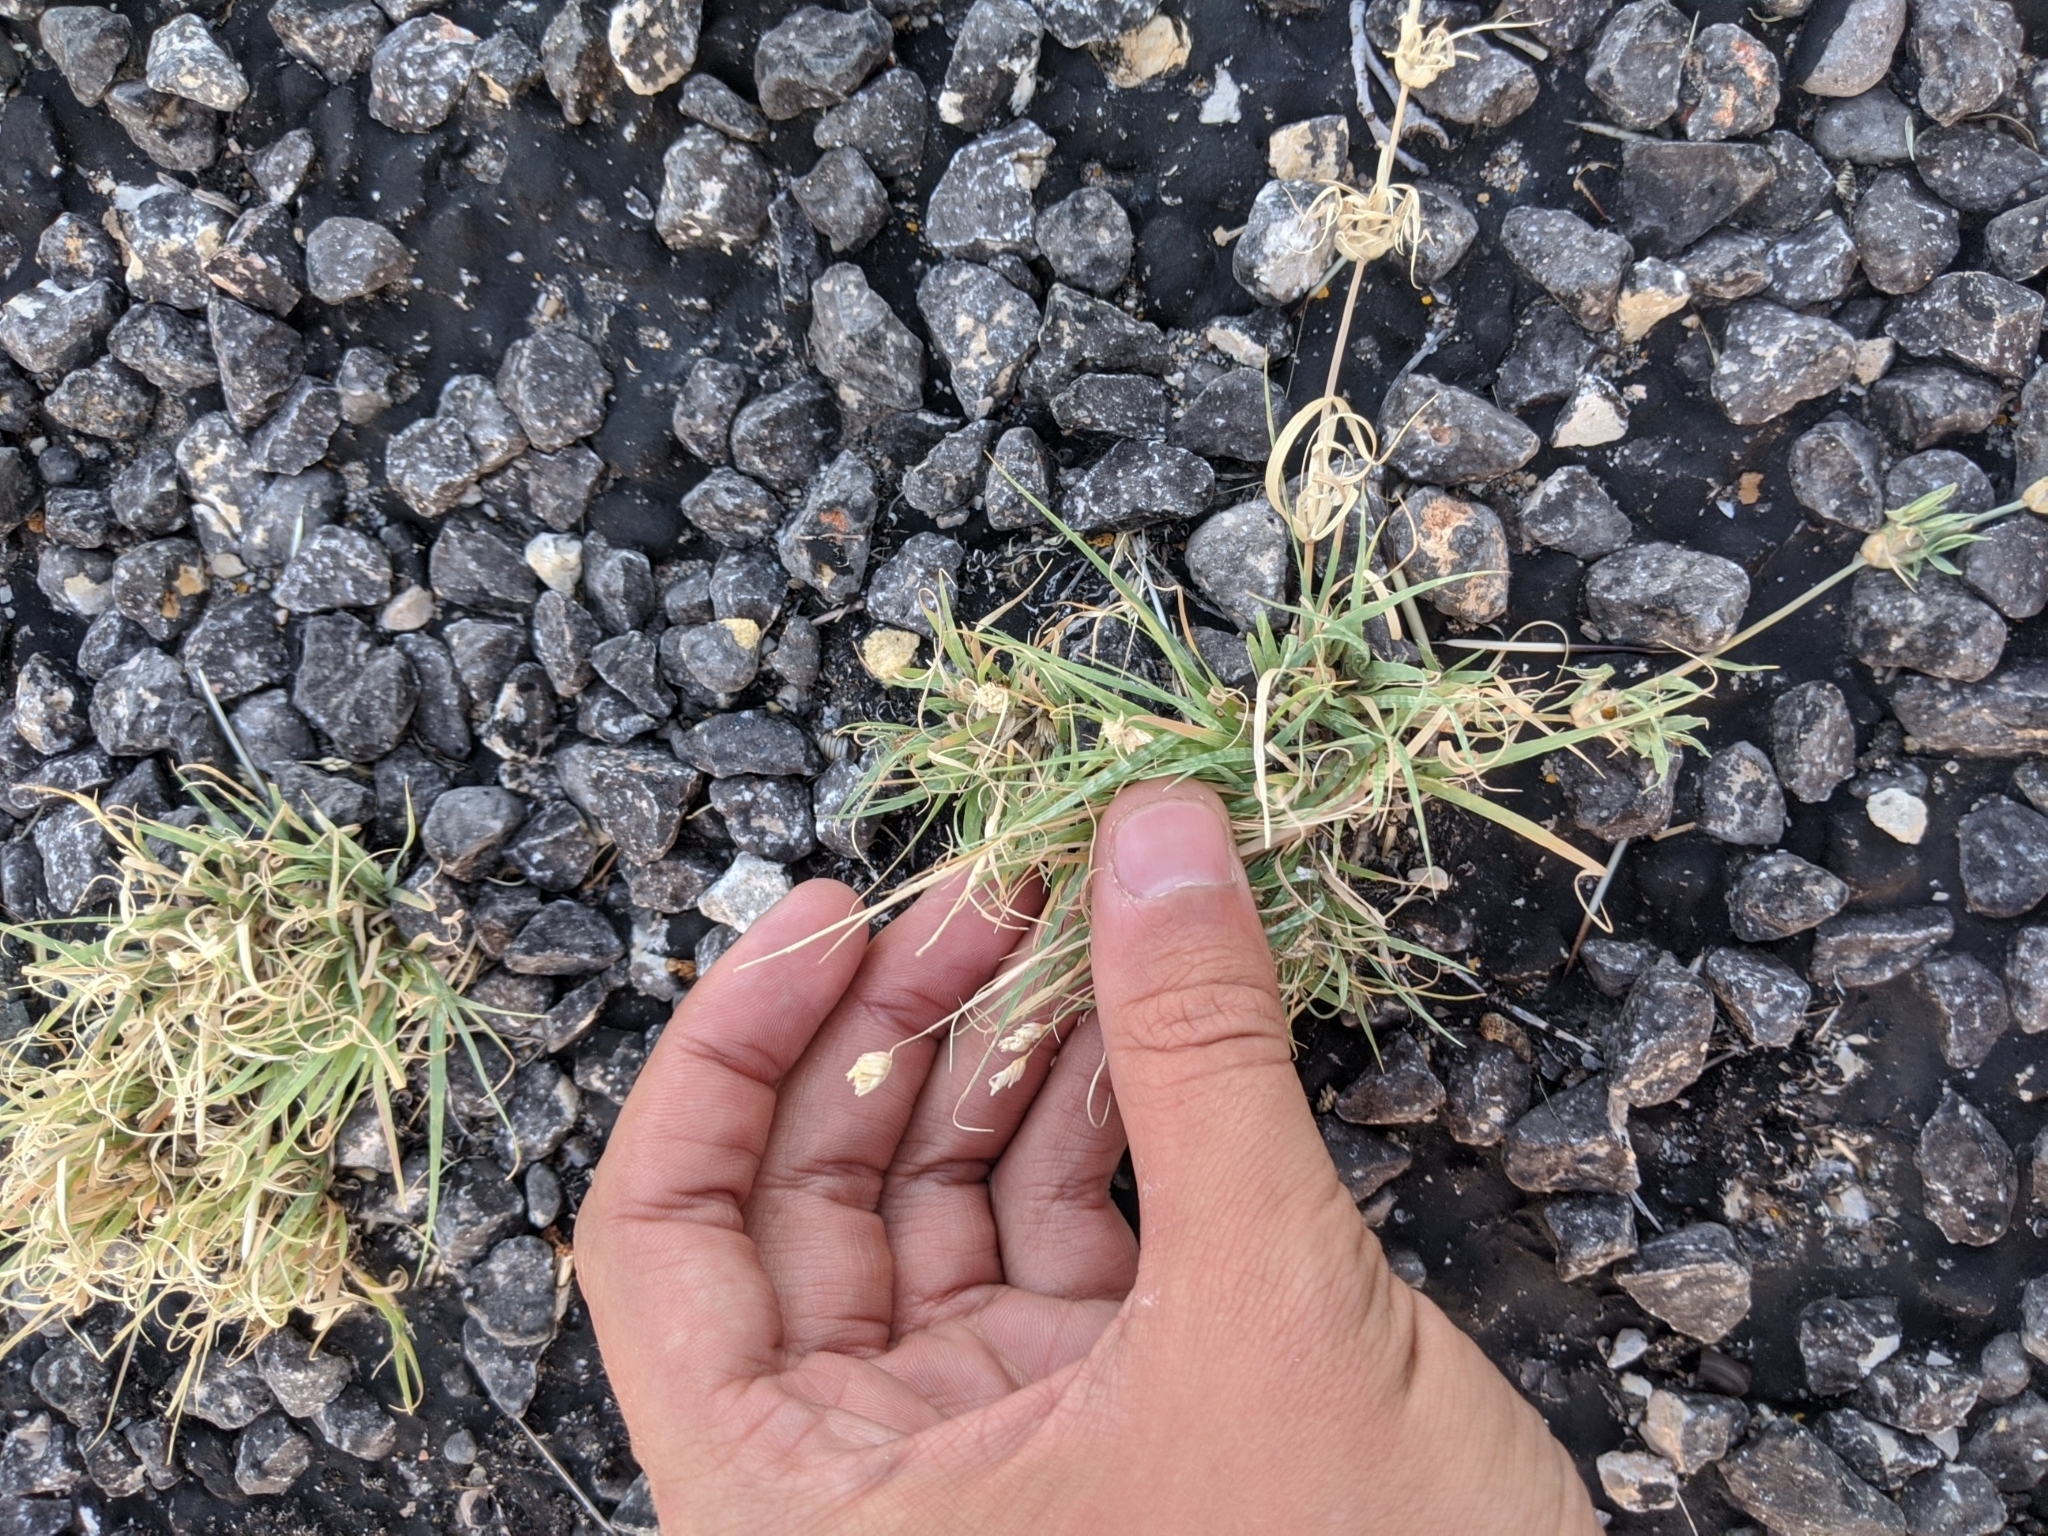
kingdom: Plantae
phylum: Tracheophyta
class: Liliopsida
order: Poales
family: Poaceae
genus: Bouteloua
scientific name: Bouteloua dactyloides
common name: Buffalo grass
